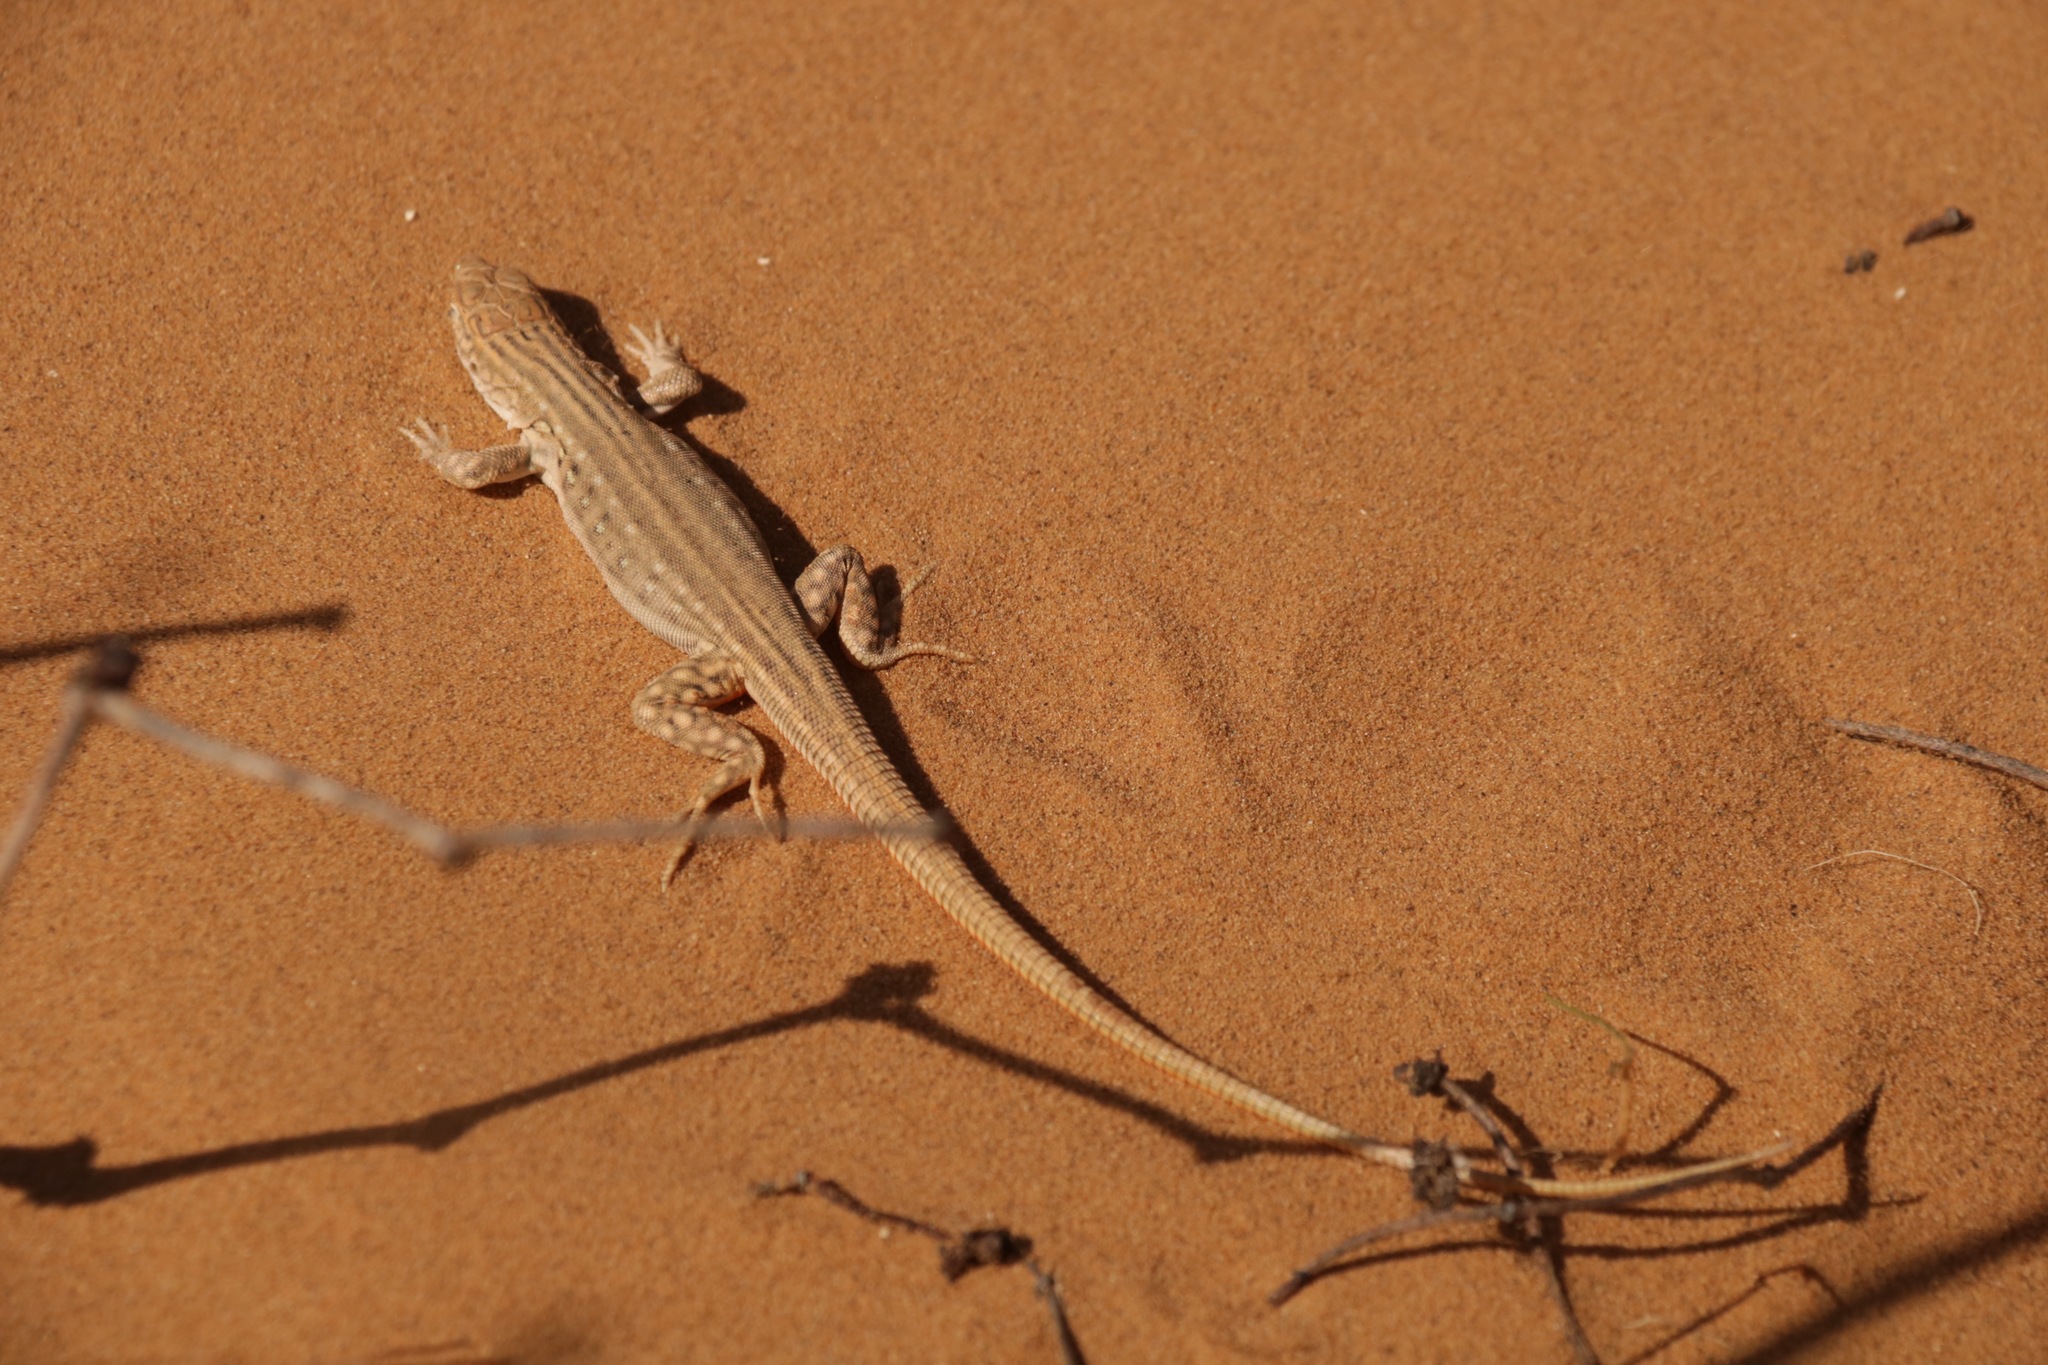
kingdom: Animalia
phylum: Chordata
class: Squamata
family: Lacertidae
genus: Eremias
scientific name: Eremias velox
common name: Central asian racerunner
